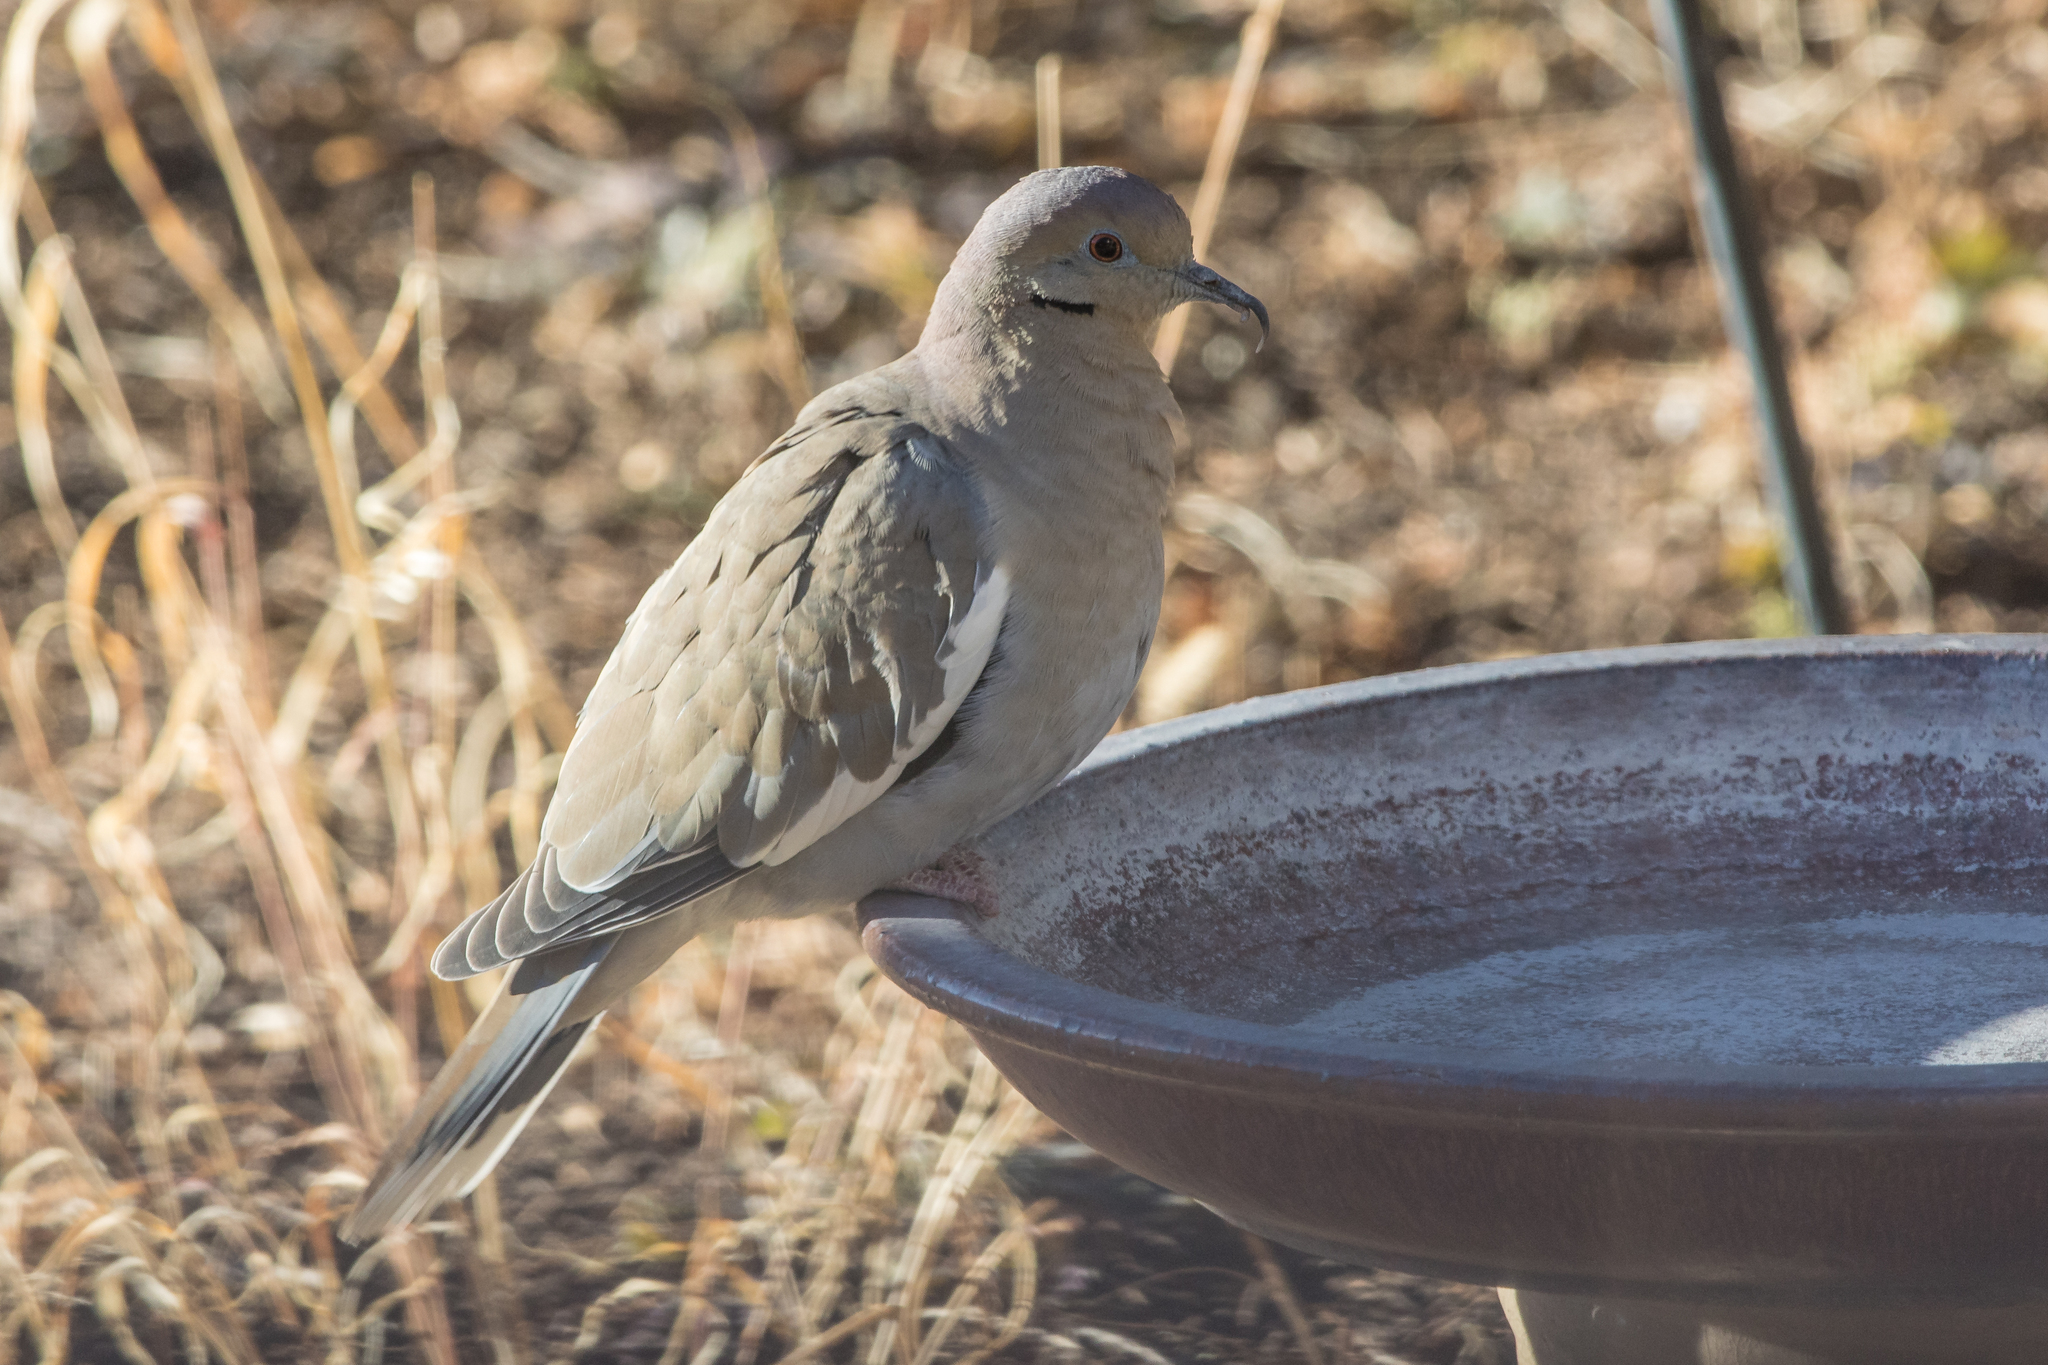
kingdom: Animalia
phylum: Chordata
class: Aves
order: Columbiformes
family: Columbidae
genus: Zenaida
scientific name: Zenaida asiatica
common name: White-winged dove
